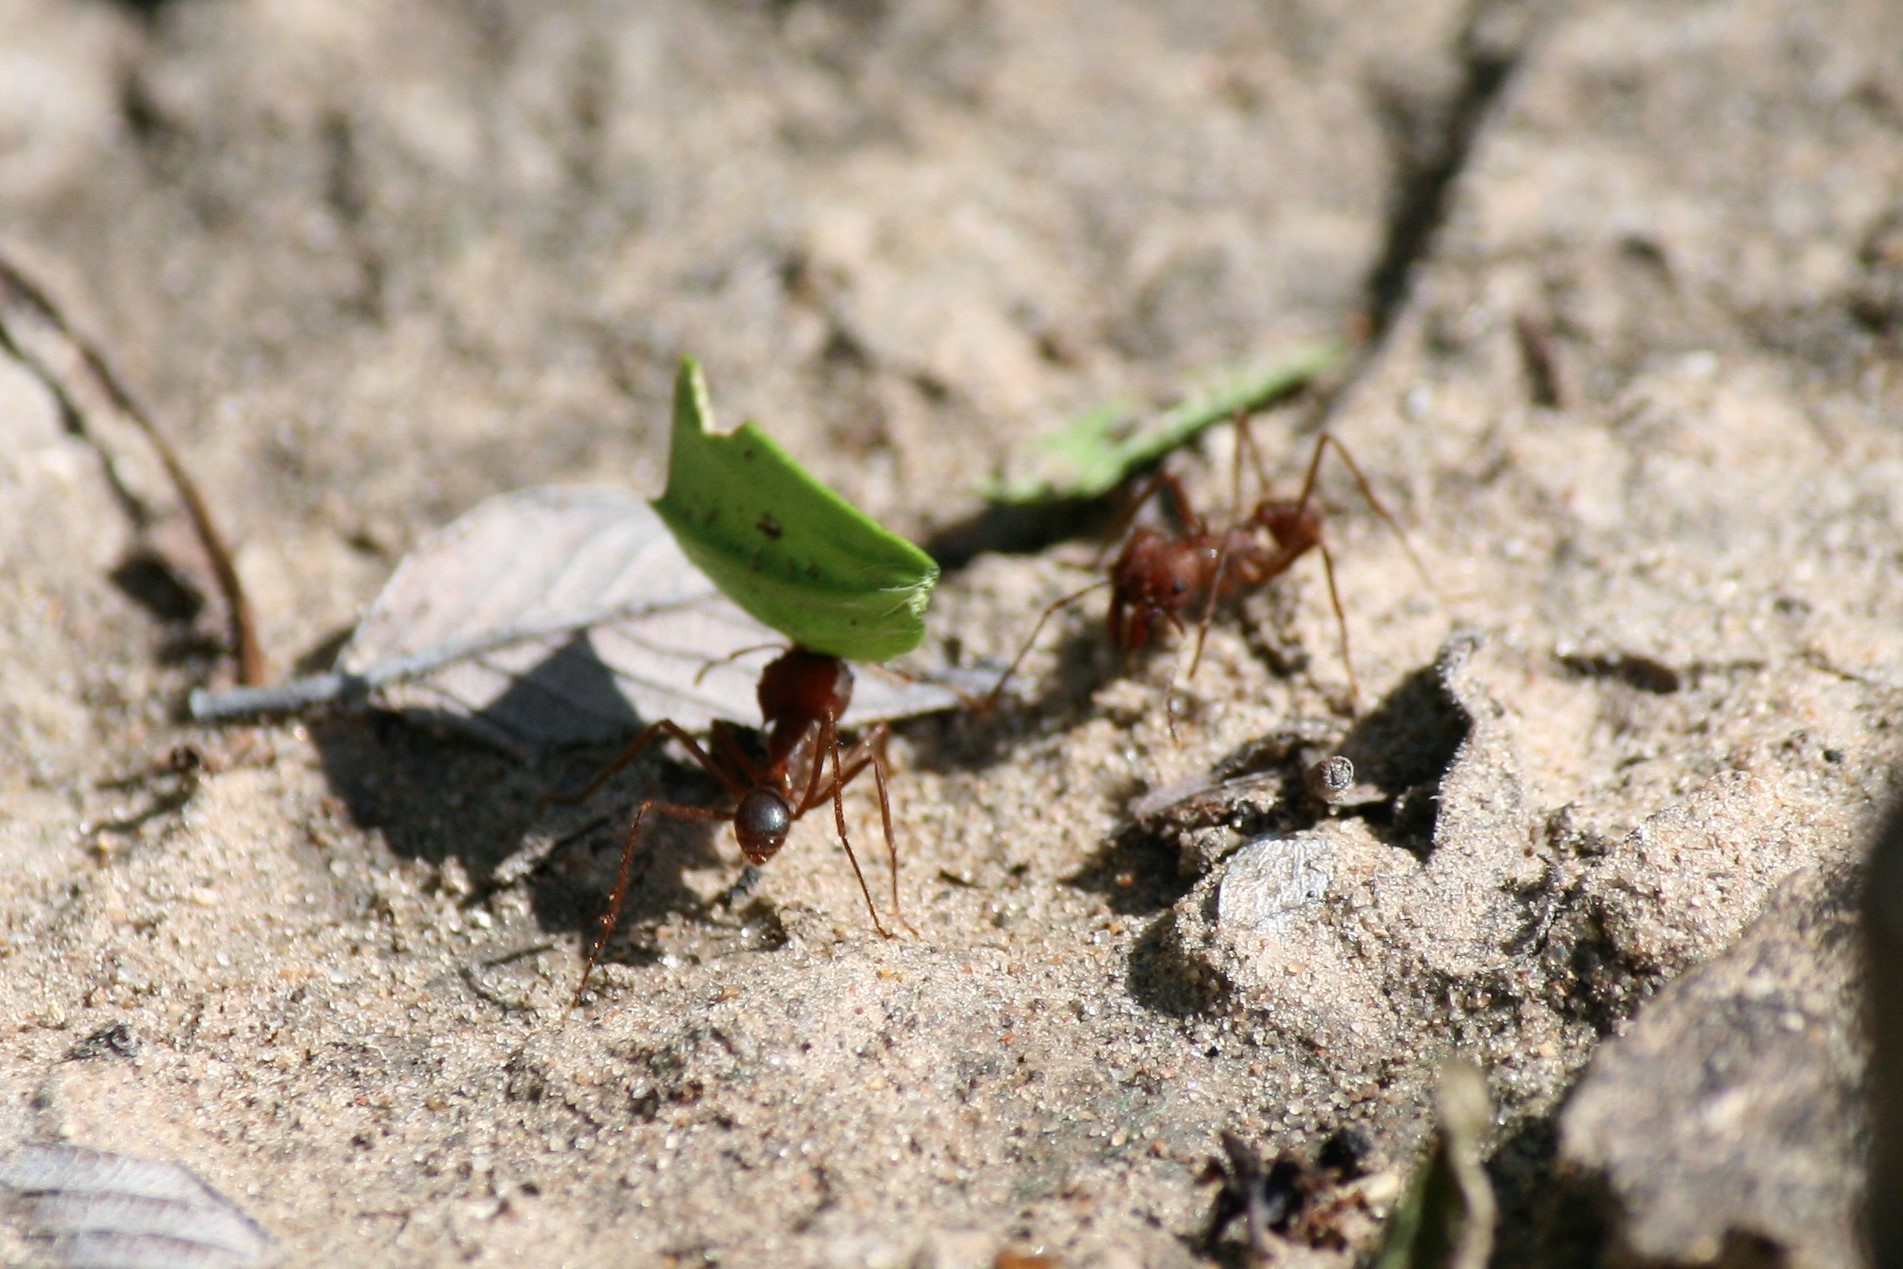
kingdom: Animalia
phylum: Arthropoda
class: Insecta
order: Hymenoptera
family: Formicidae
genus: Atta
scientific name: Atta texana
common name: Texas leafcutting ant
